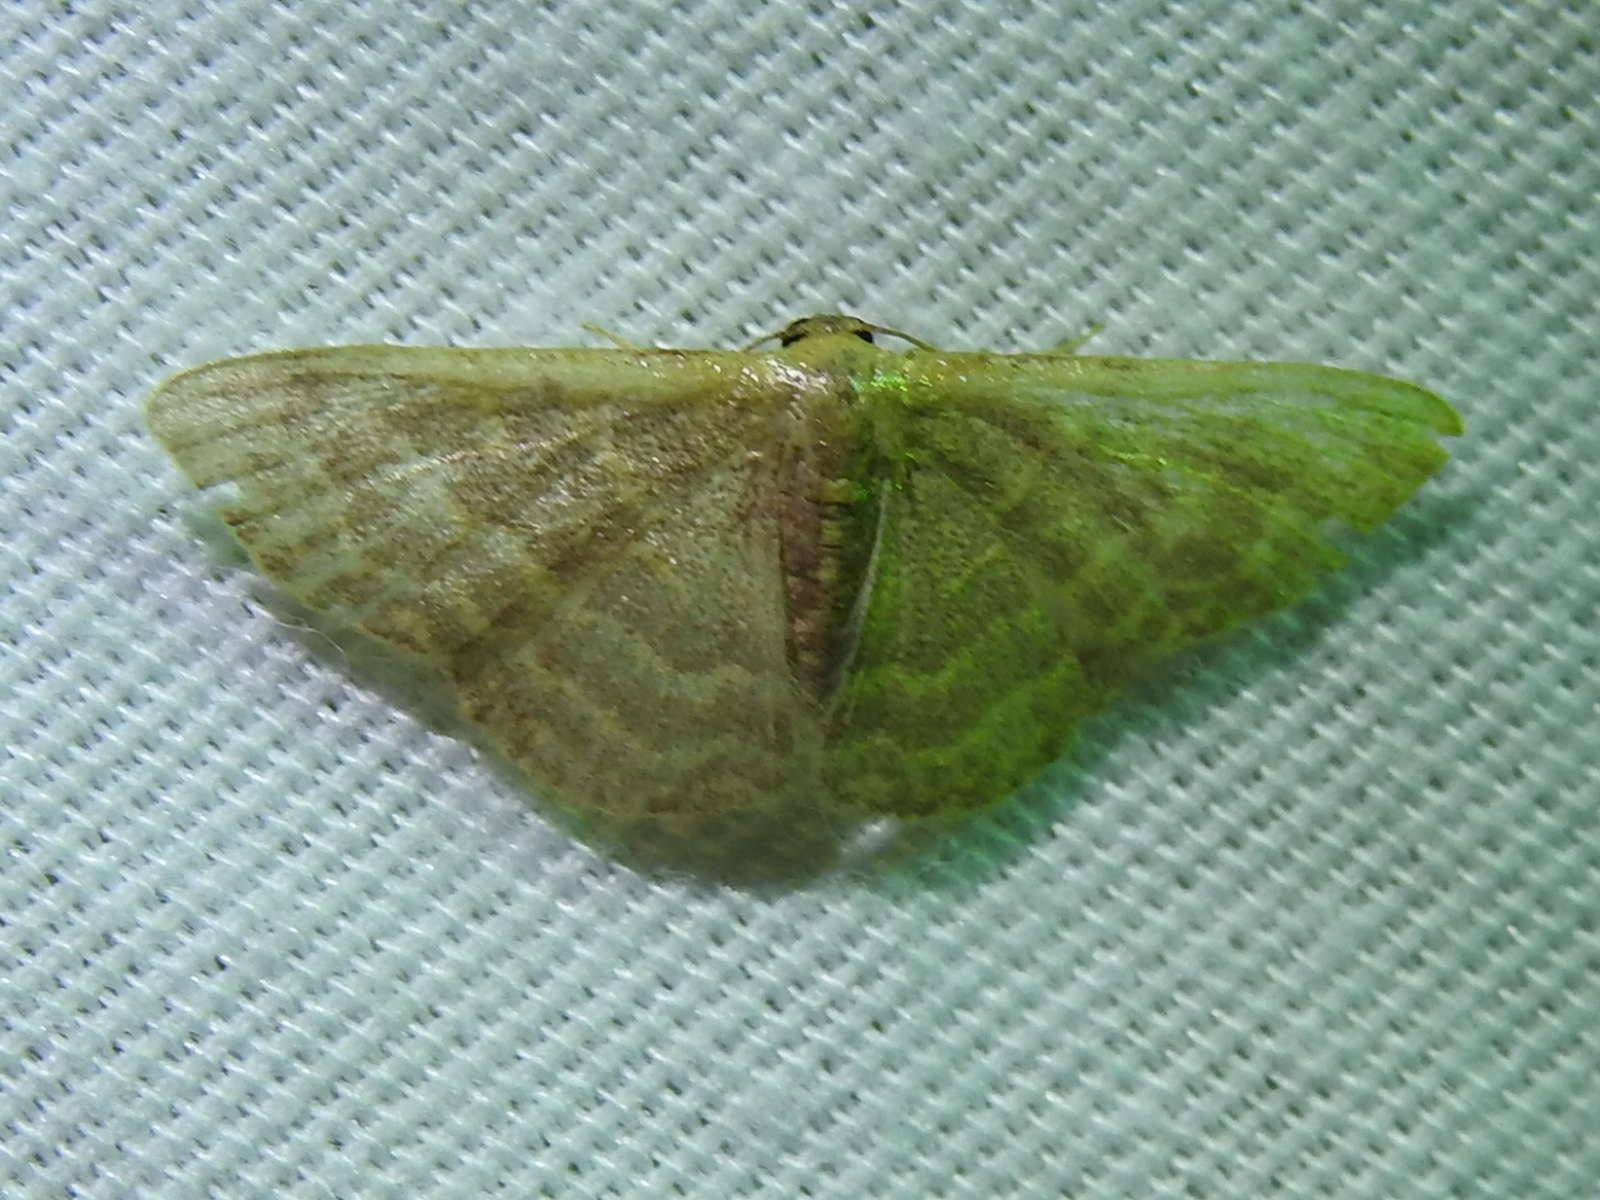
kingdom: Animalia
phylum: Arthropoda
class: Insecta
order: Lepidoptera
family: Geometridae
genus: Leptostales
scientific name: Leptostales pannaria
